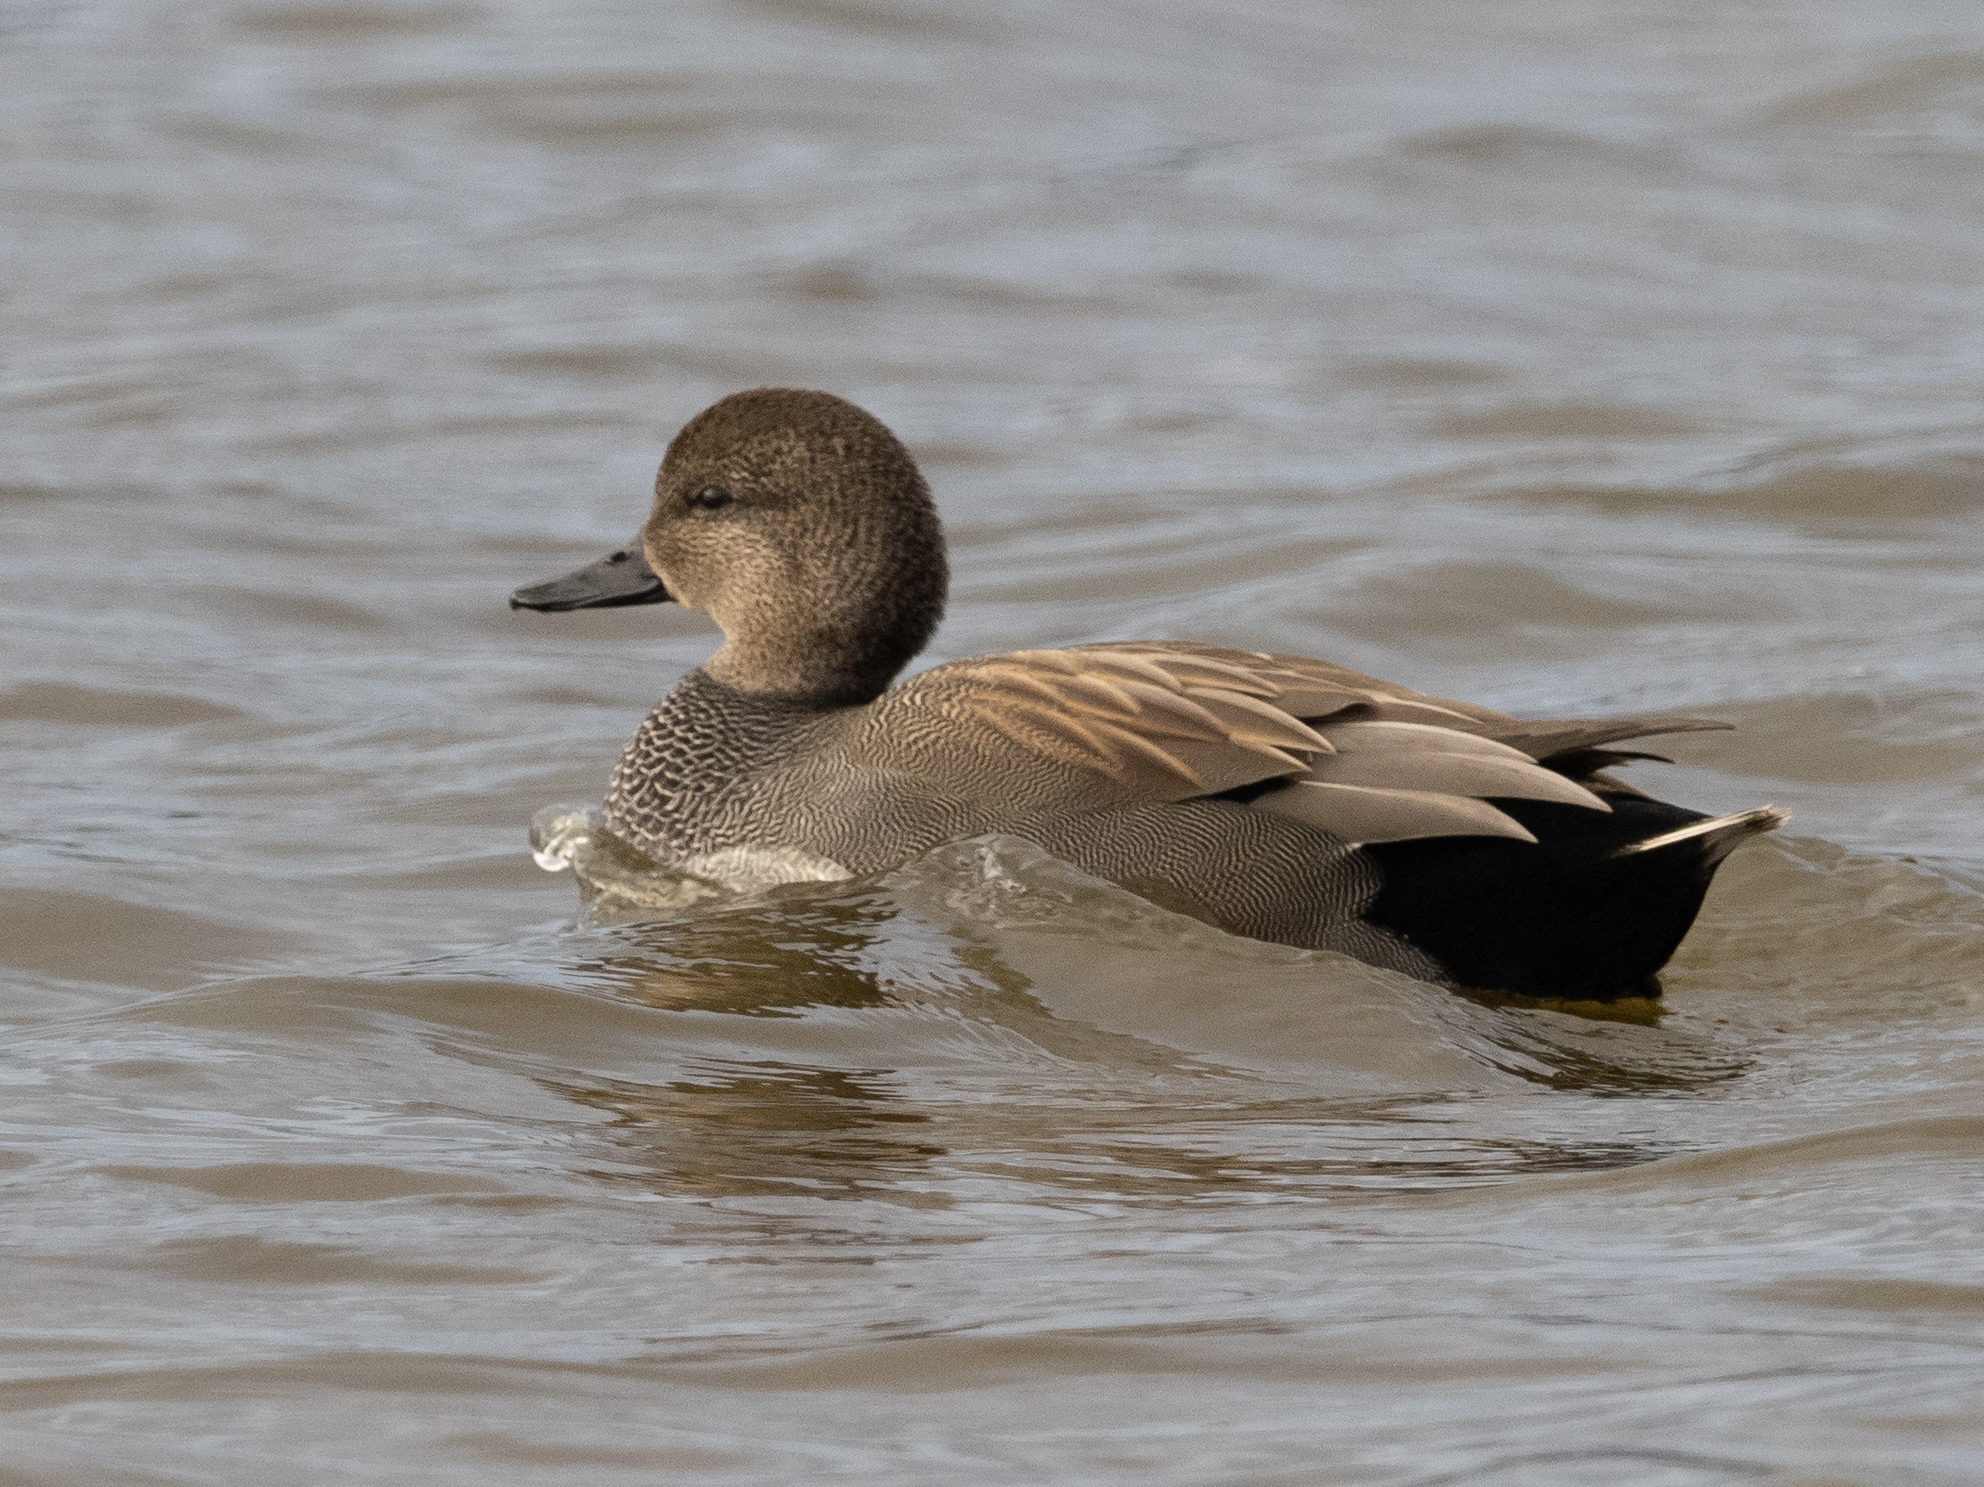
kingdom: Animalia
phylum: Chordata
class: Aves
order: Anseriformes
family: Anatidae
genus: Mareca
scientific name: Mareca strepera
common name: Gadwall
